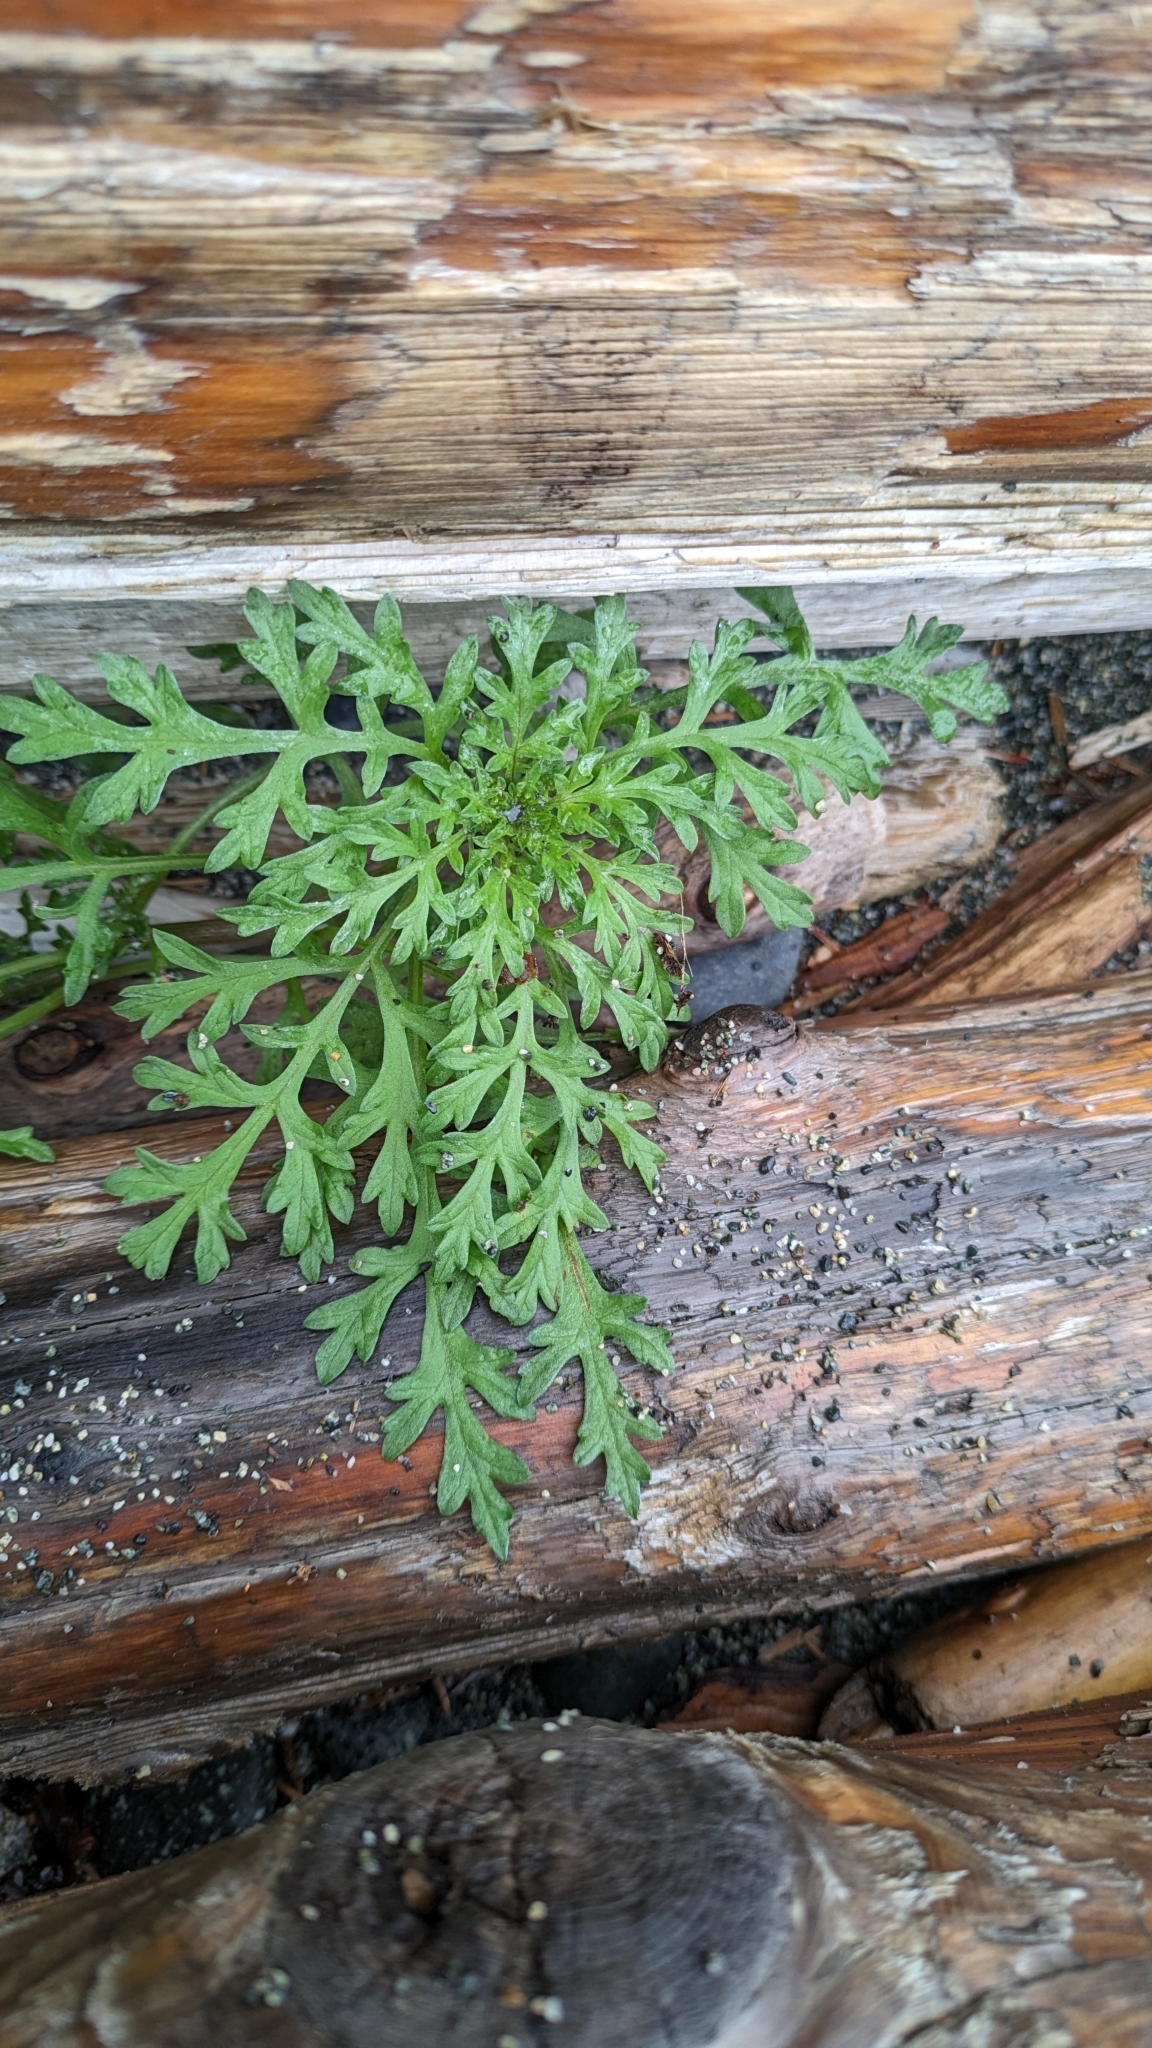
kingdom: Plantae
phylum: Tracheophyta
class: Magnoliopsida
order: Asterales
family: Asteraceae
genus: Ambrosia
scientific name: Ambrosia chamissonis
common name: Beachbur
